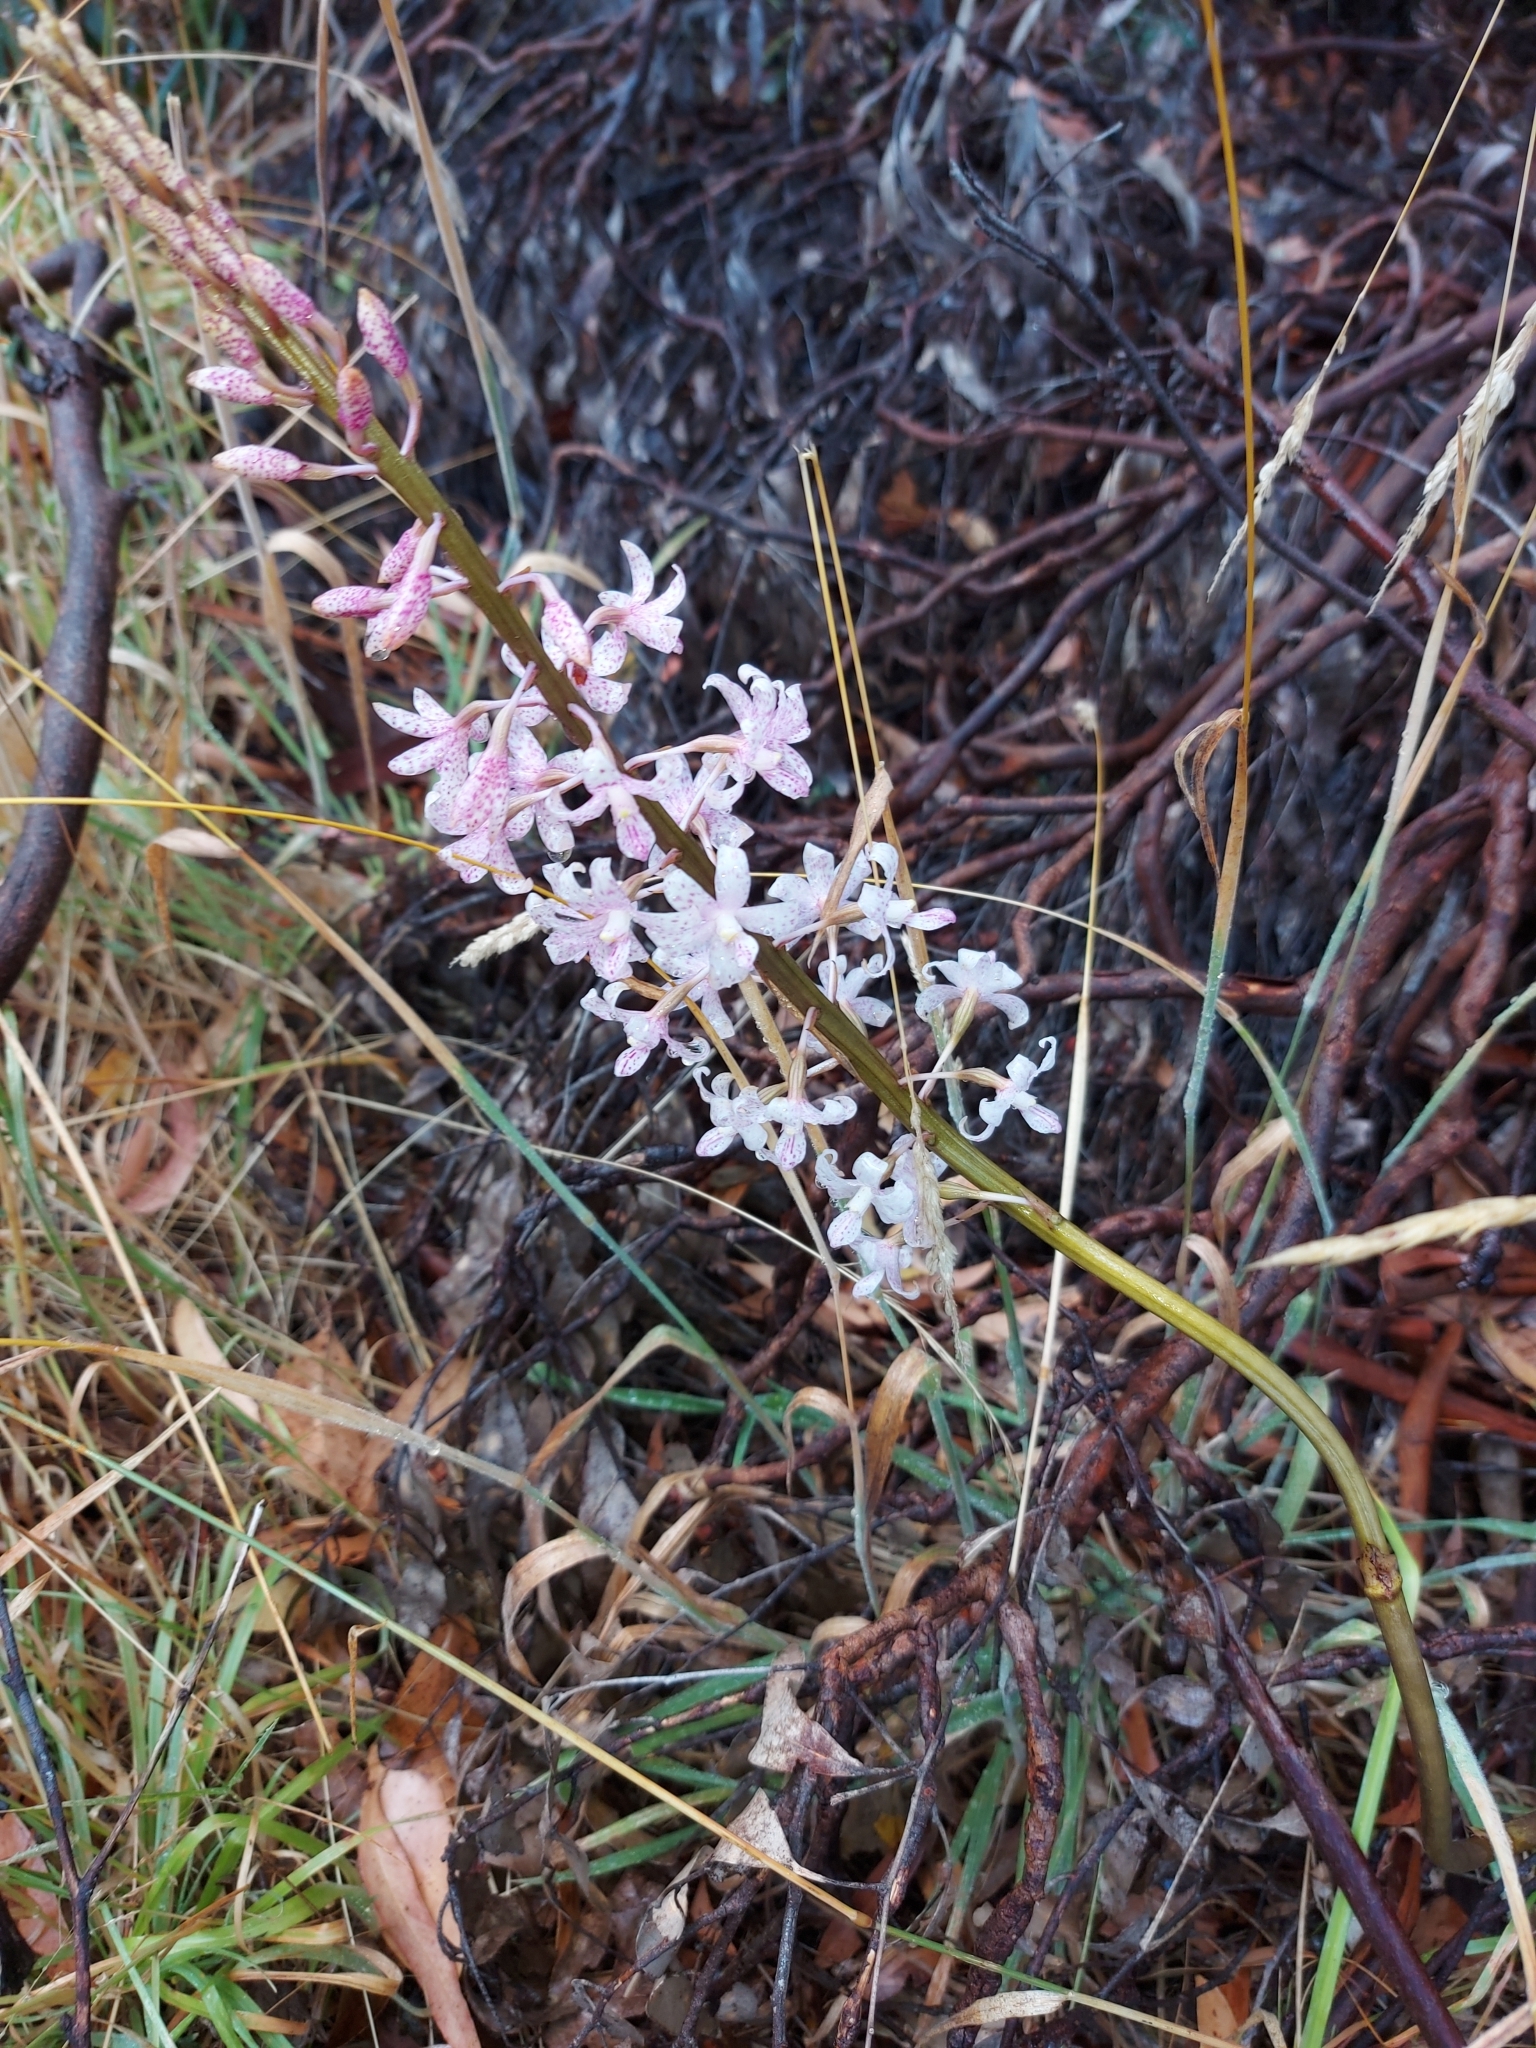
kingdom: Plantae
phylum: Tracheophyta
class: Liliopsida
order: Asparagales
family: Orchidaceae
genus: Dipodium
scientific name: Dipodium pardalinum
